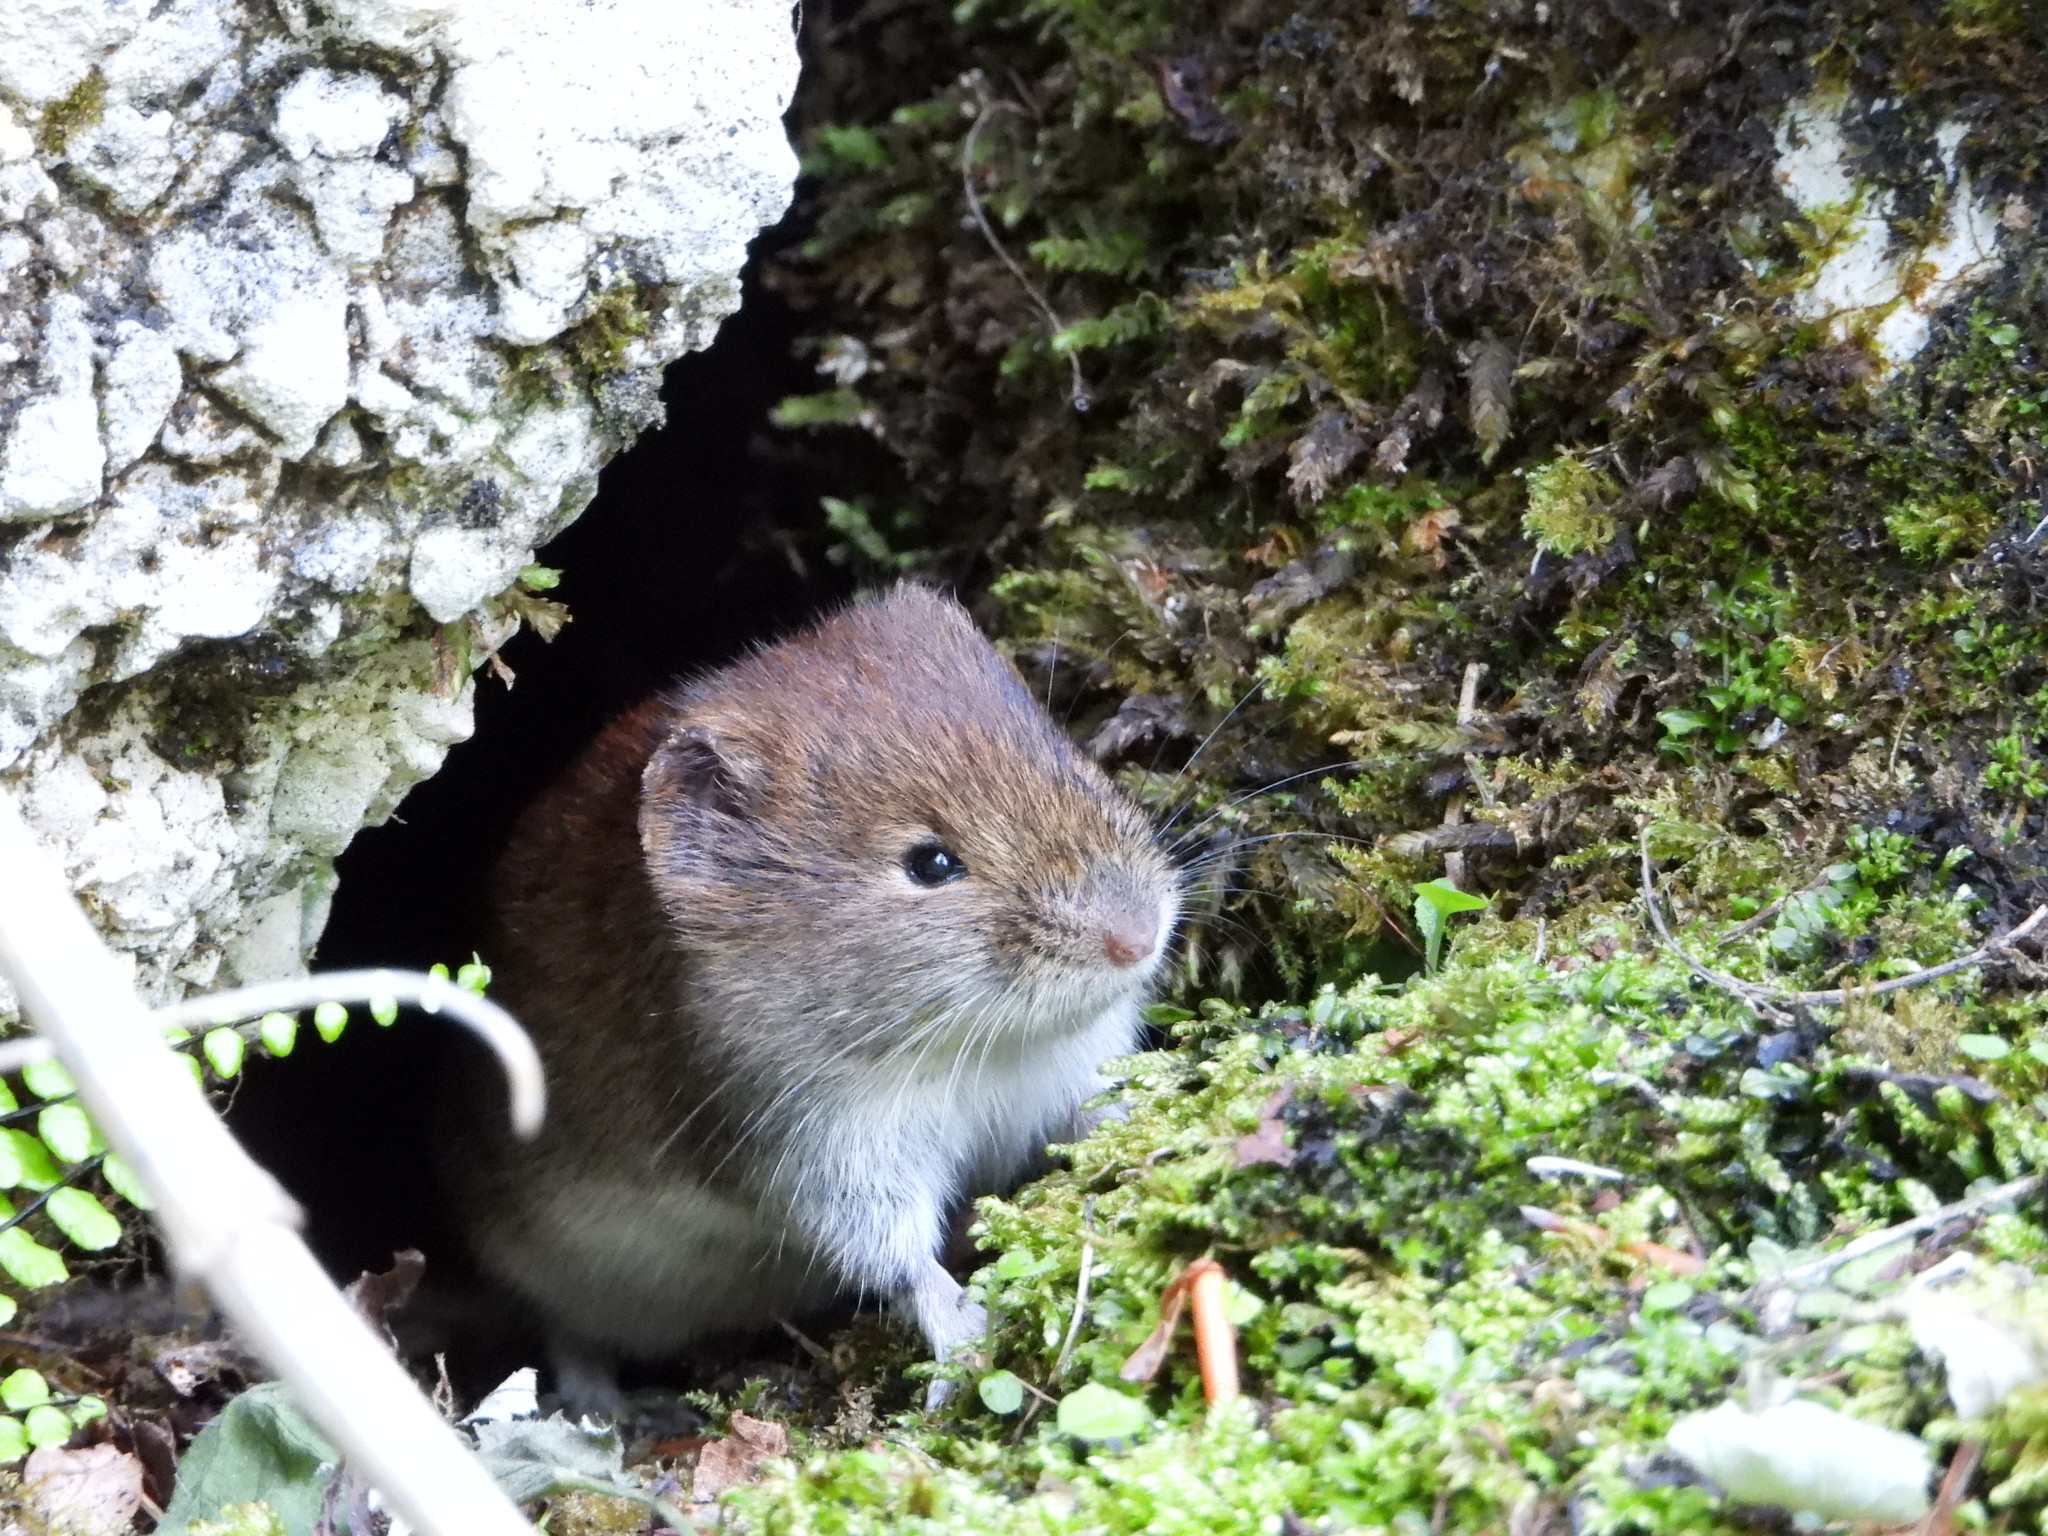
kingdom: Animalia
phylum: Chordata
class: Mammalia
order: Rodentia
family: Cricetidae
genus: Myodes
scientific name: Myodes glareolus
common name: Bank vole
